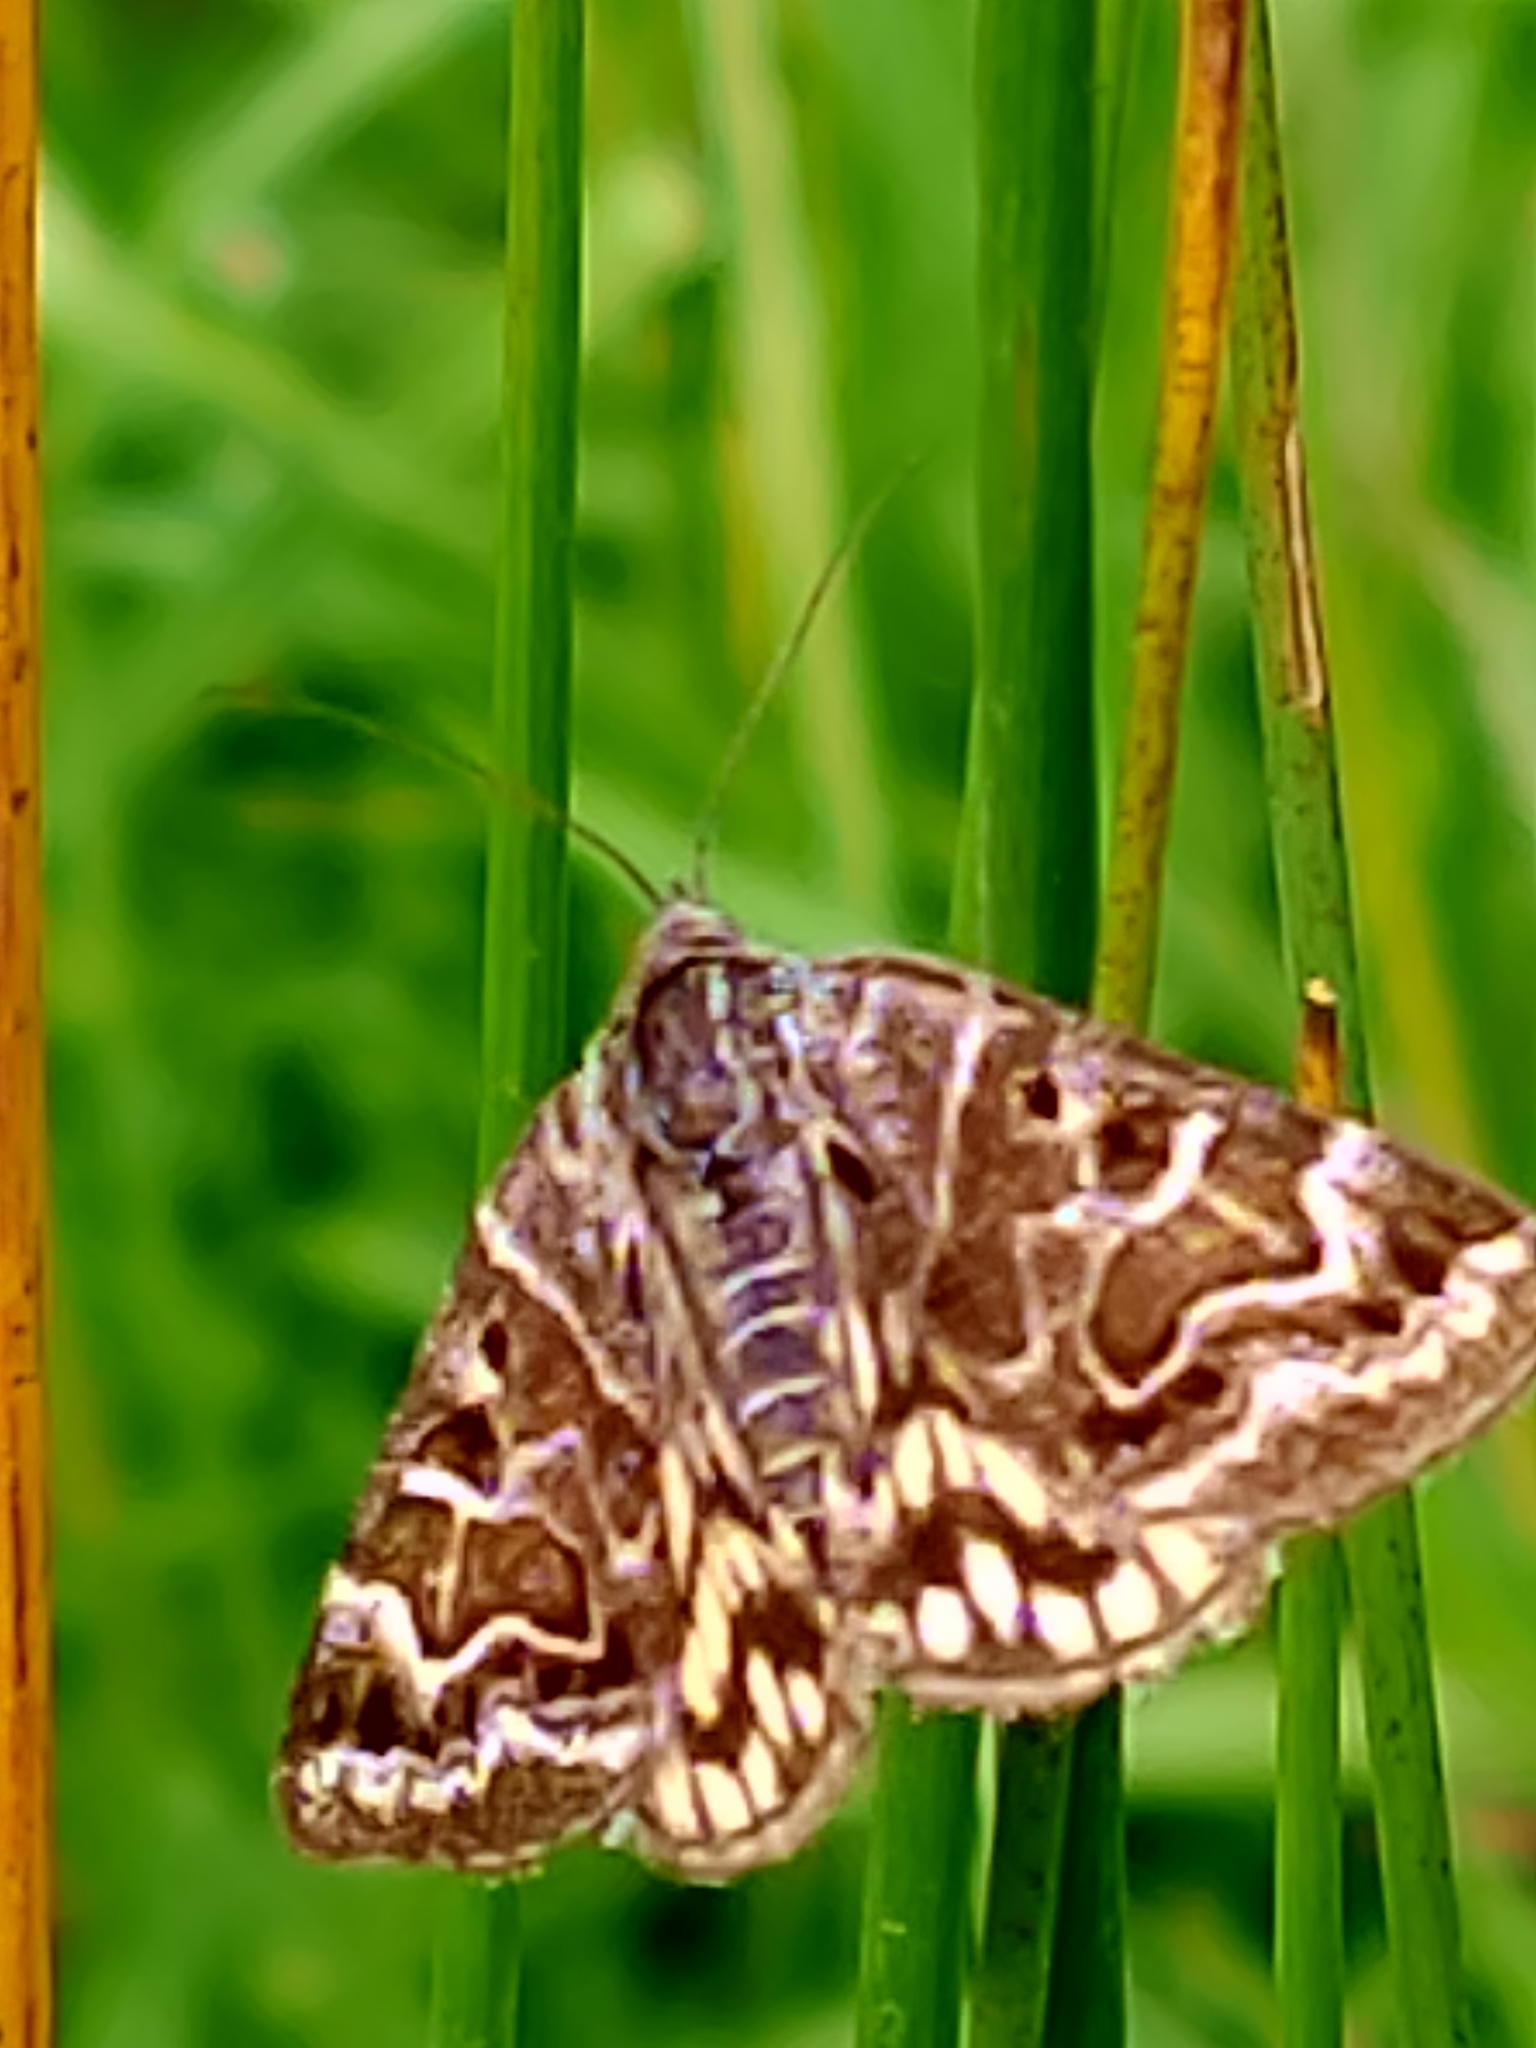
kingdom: Animalia
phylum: Arthropoda
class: Insecta
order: Lepidoptera
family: Erebidae
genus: Callistege
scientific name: Callistege mi
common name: Mother shipton
